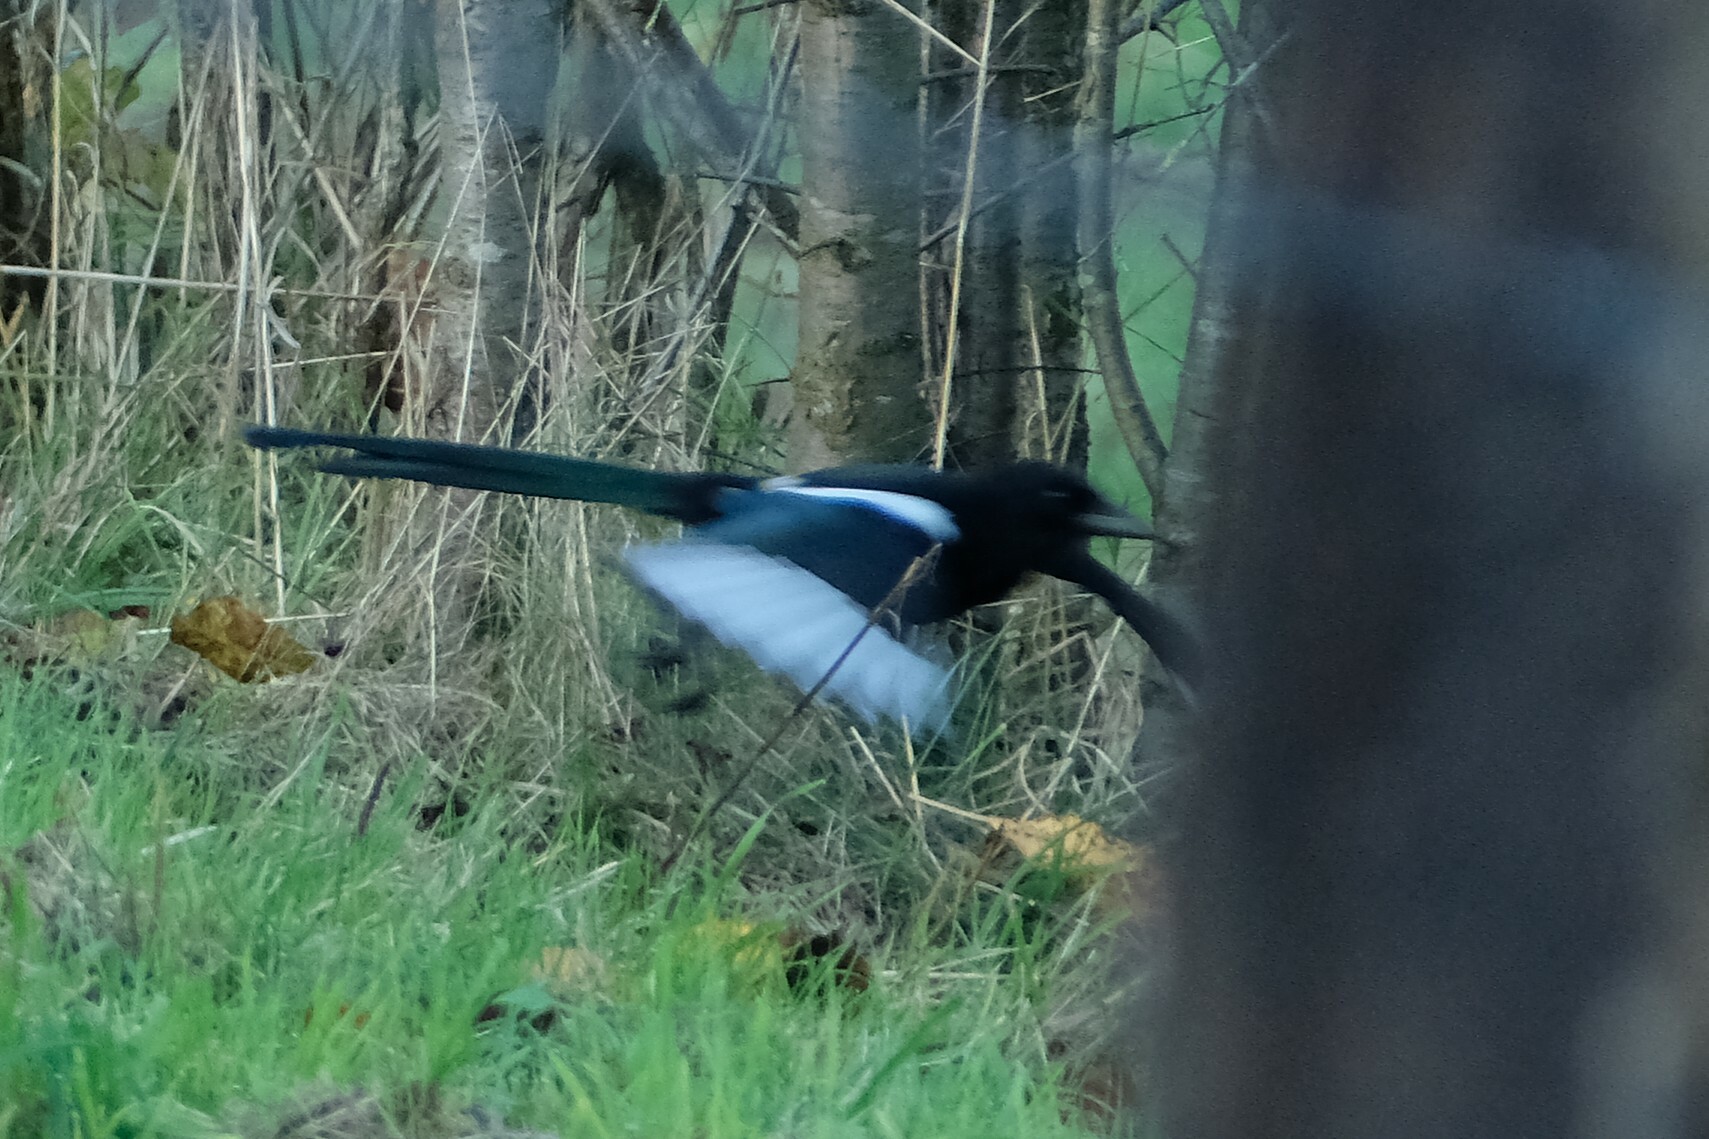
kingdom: Animalia
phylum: Chordata
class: Aves
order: Passeriformes
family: Corvidae
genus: Pica
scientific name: Pica pica
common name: Eurasian magpie
